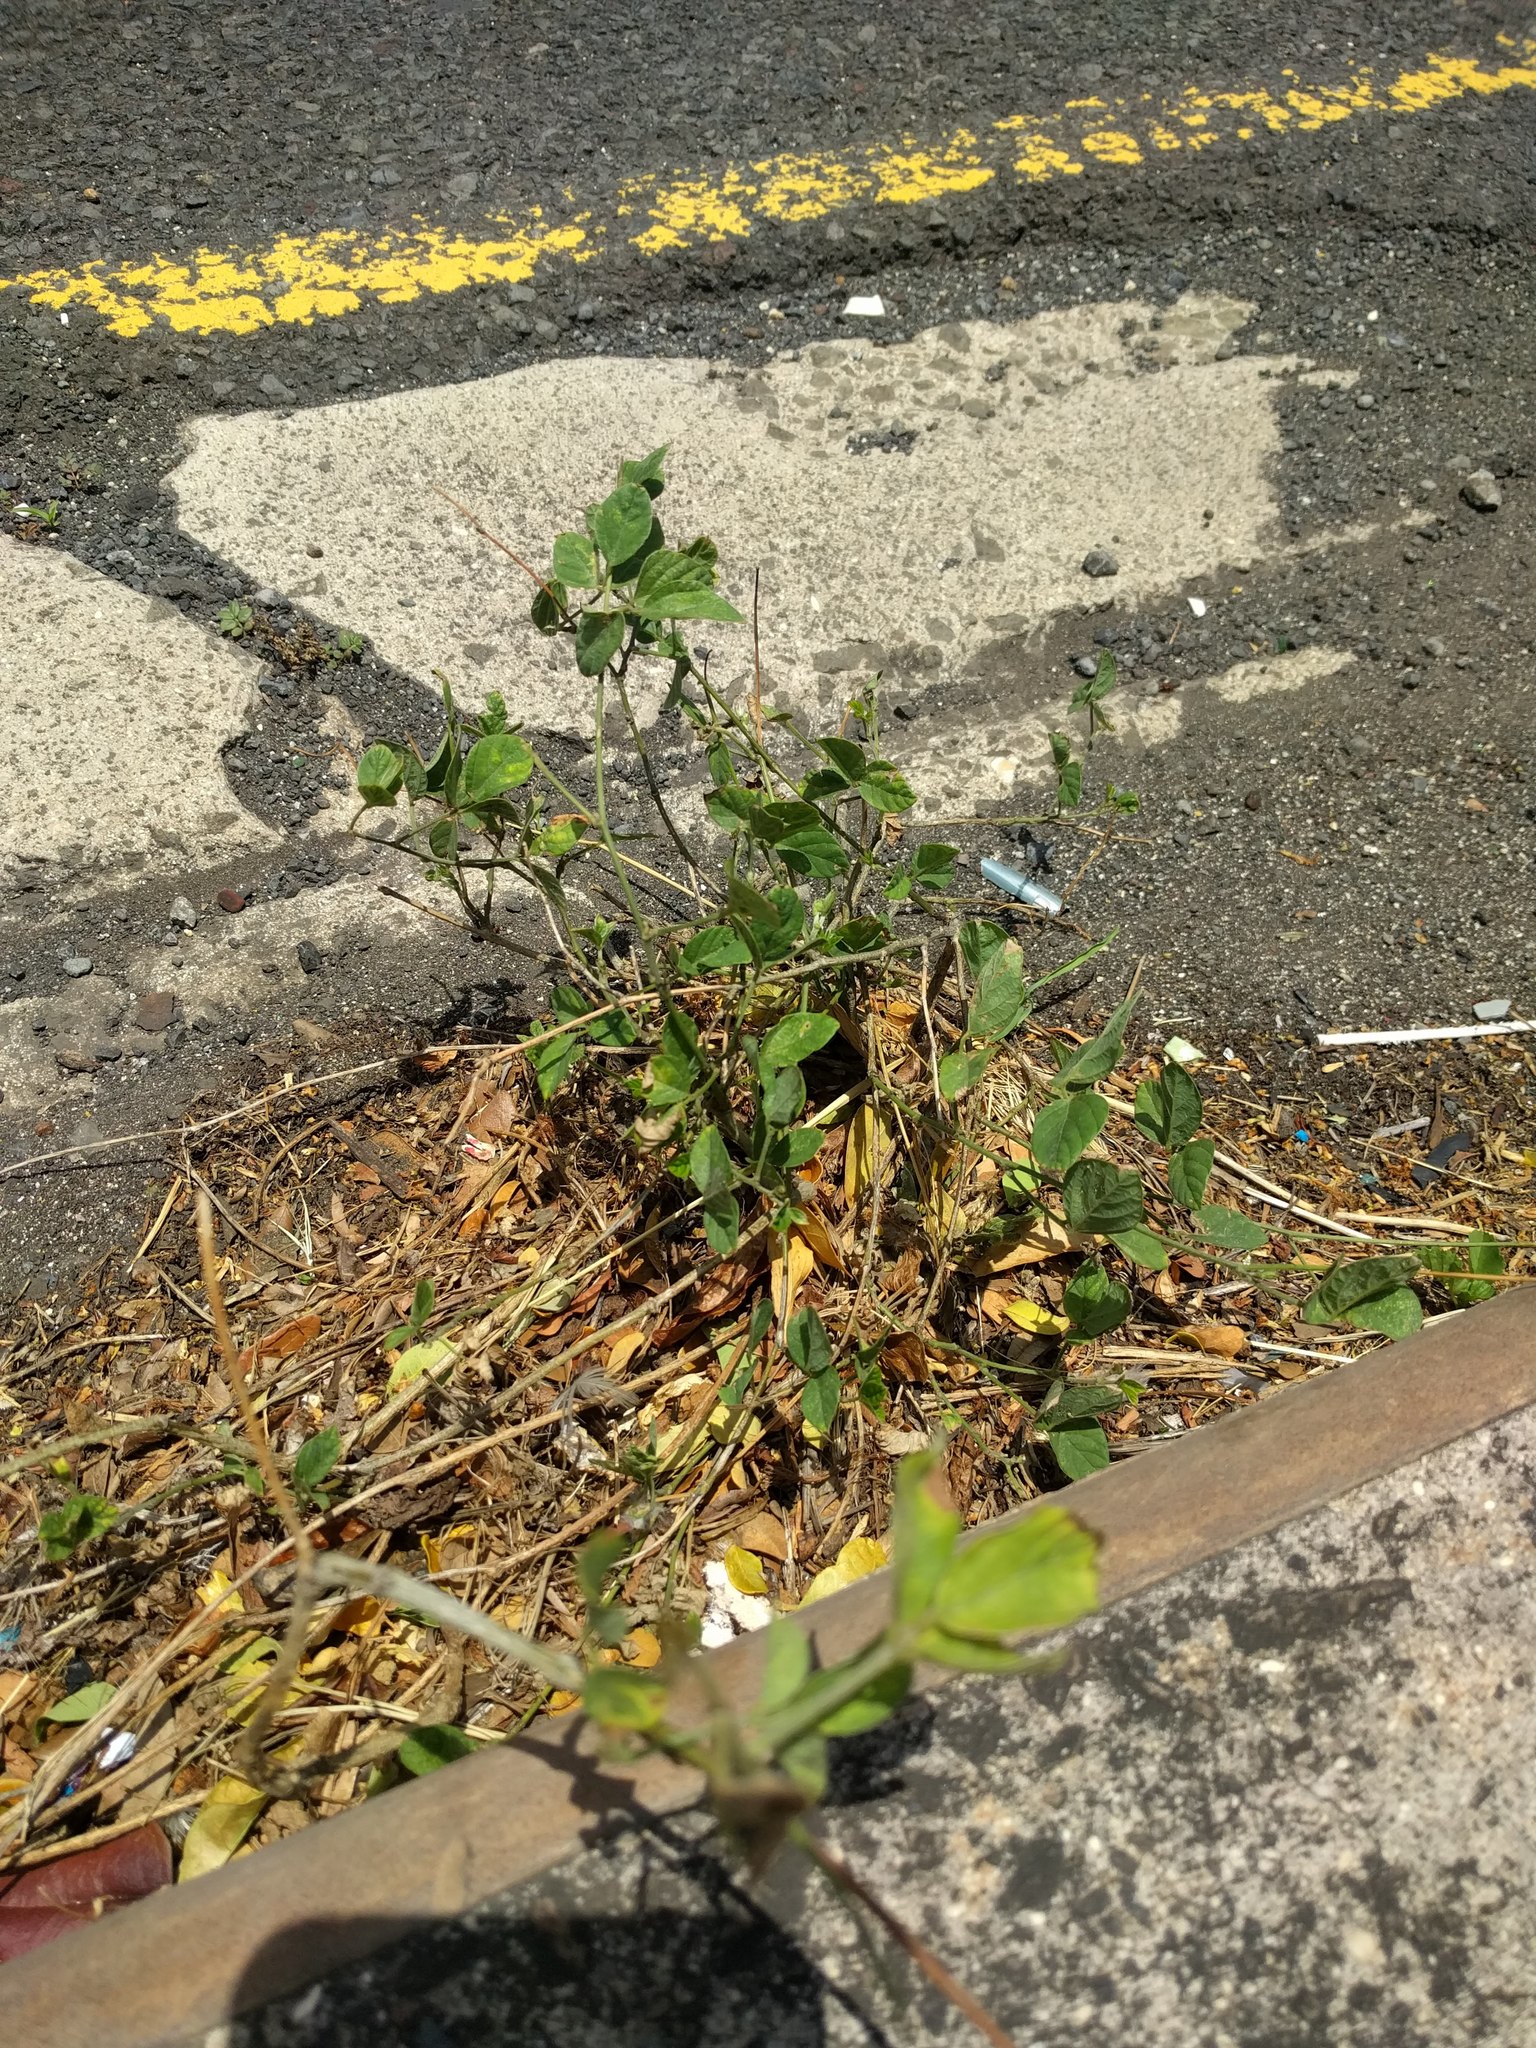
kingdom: Plantae
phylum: Tracheophyta
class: Magnoliopsida
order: Fabales
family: Fabaceae
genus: Clitoria
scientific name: Clitoria ternatea
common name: Asian pigeonwings
